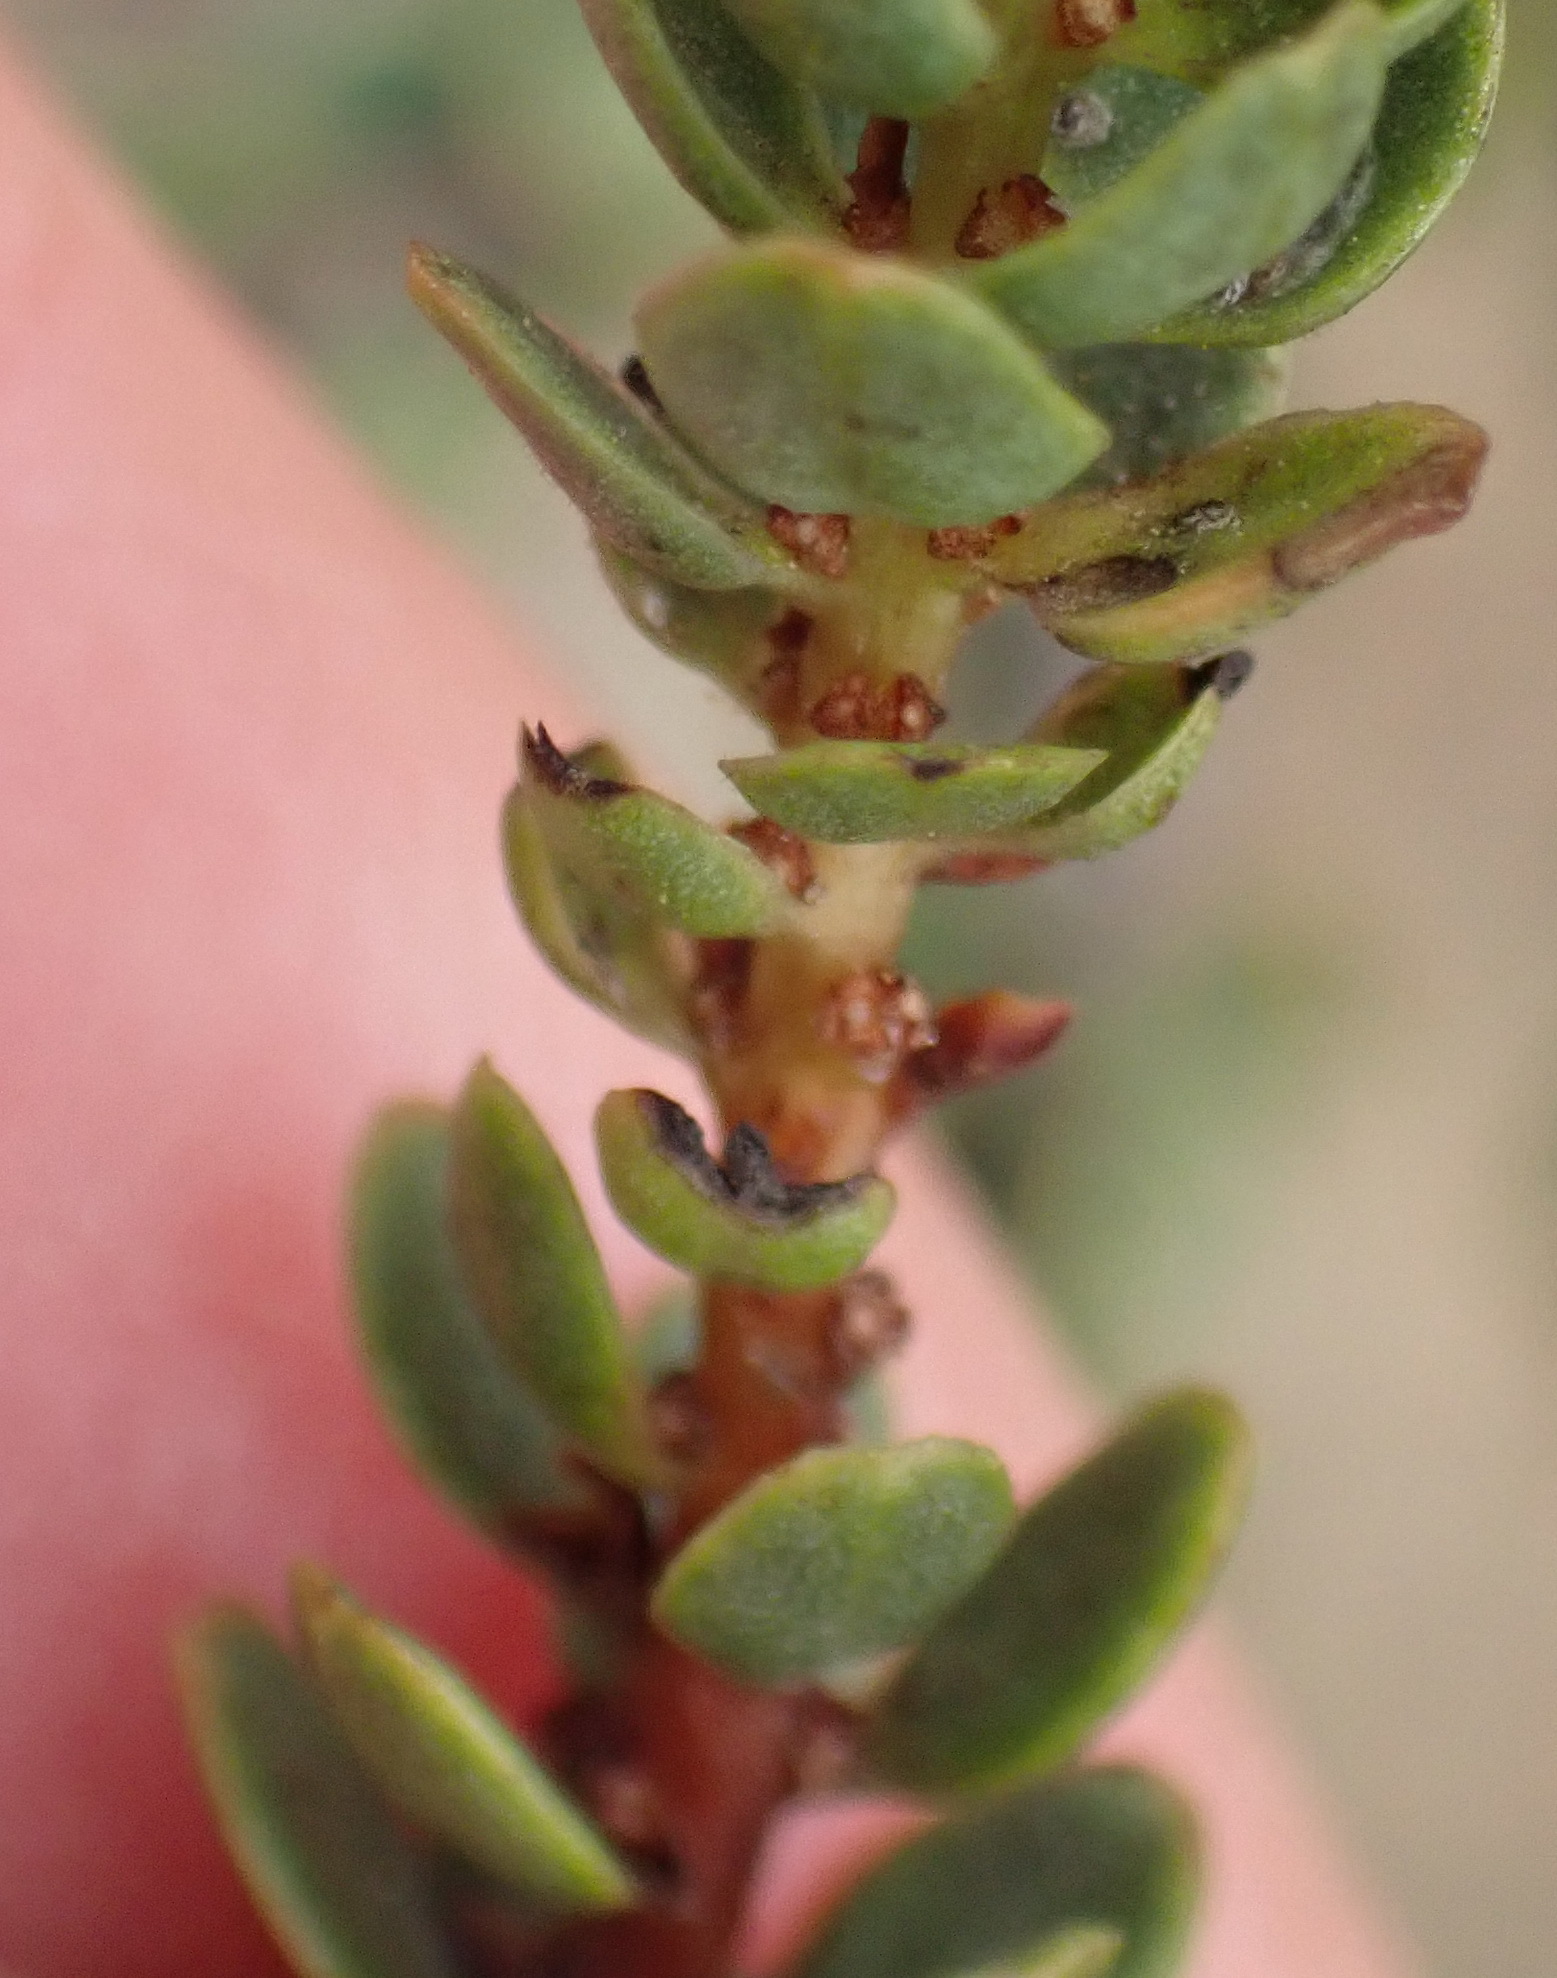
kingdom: Plantae
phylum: Tracheophyta
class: Magnoliopsida
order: Malpighiales
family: Peraceae
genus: Clutia
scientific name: Clutia laxa
